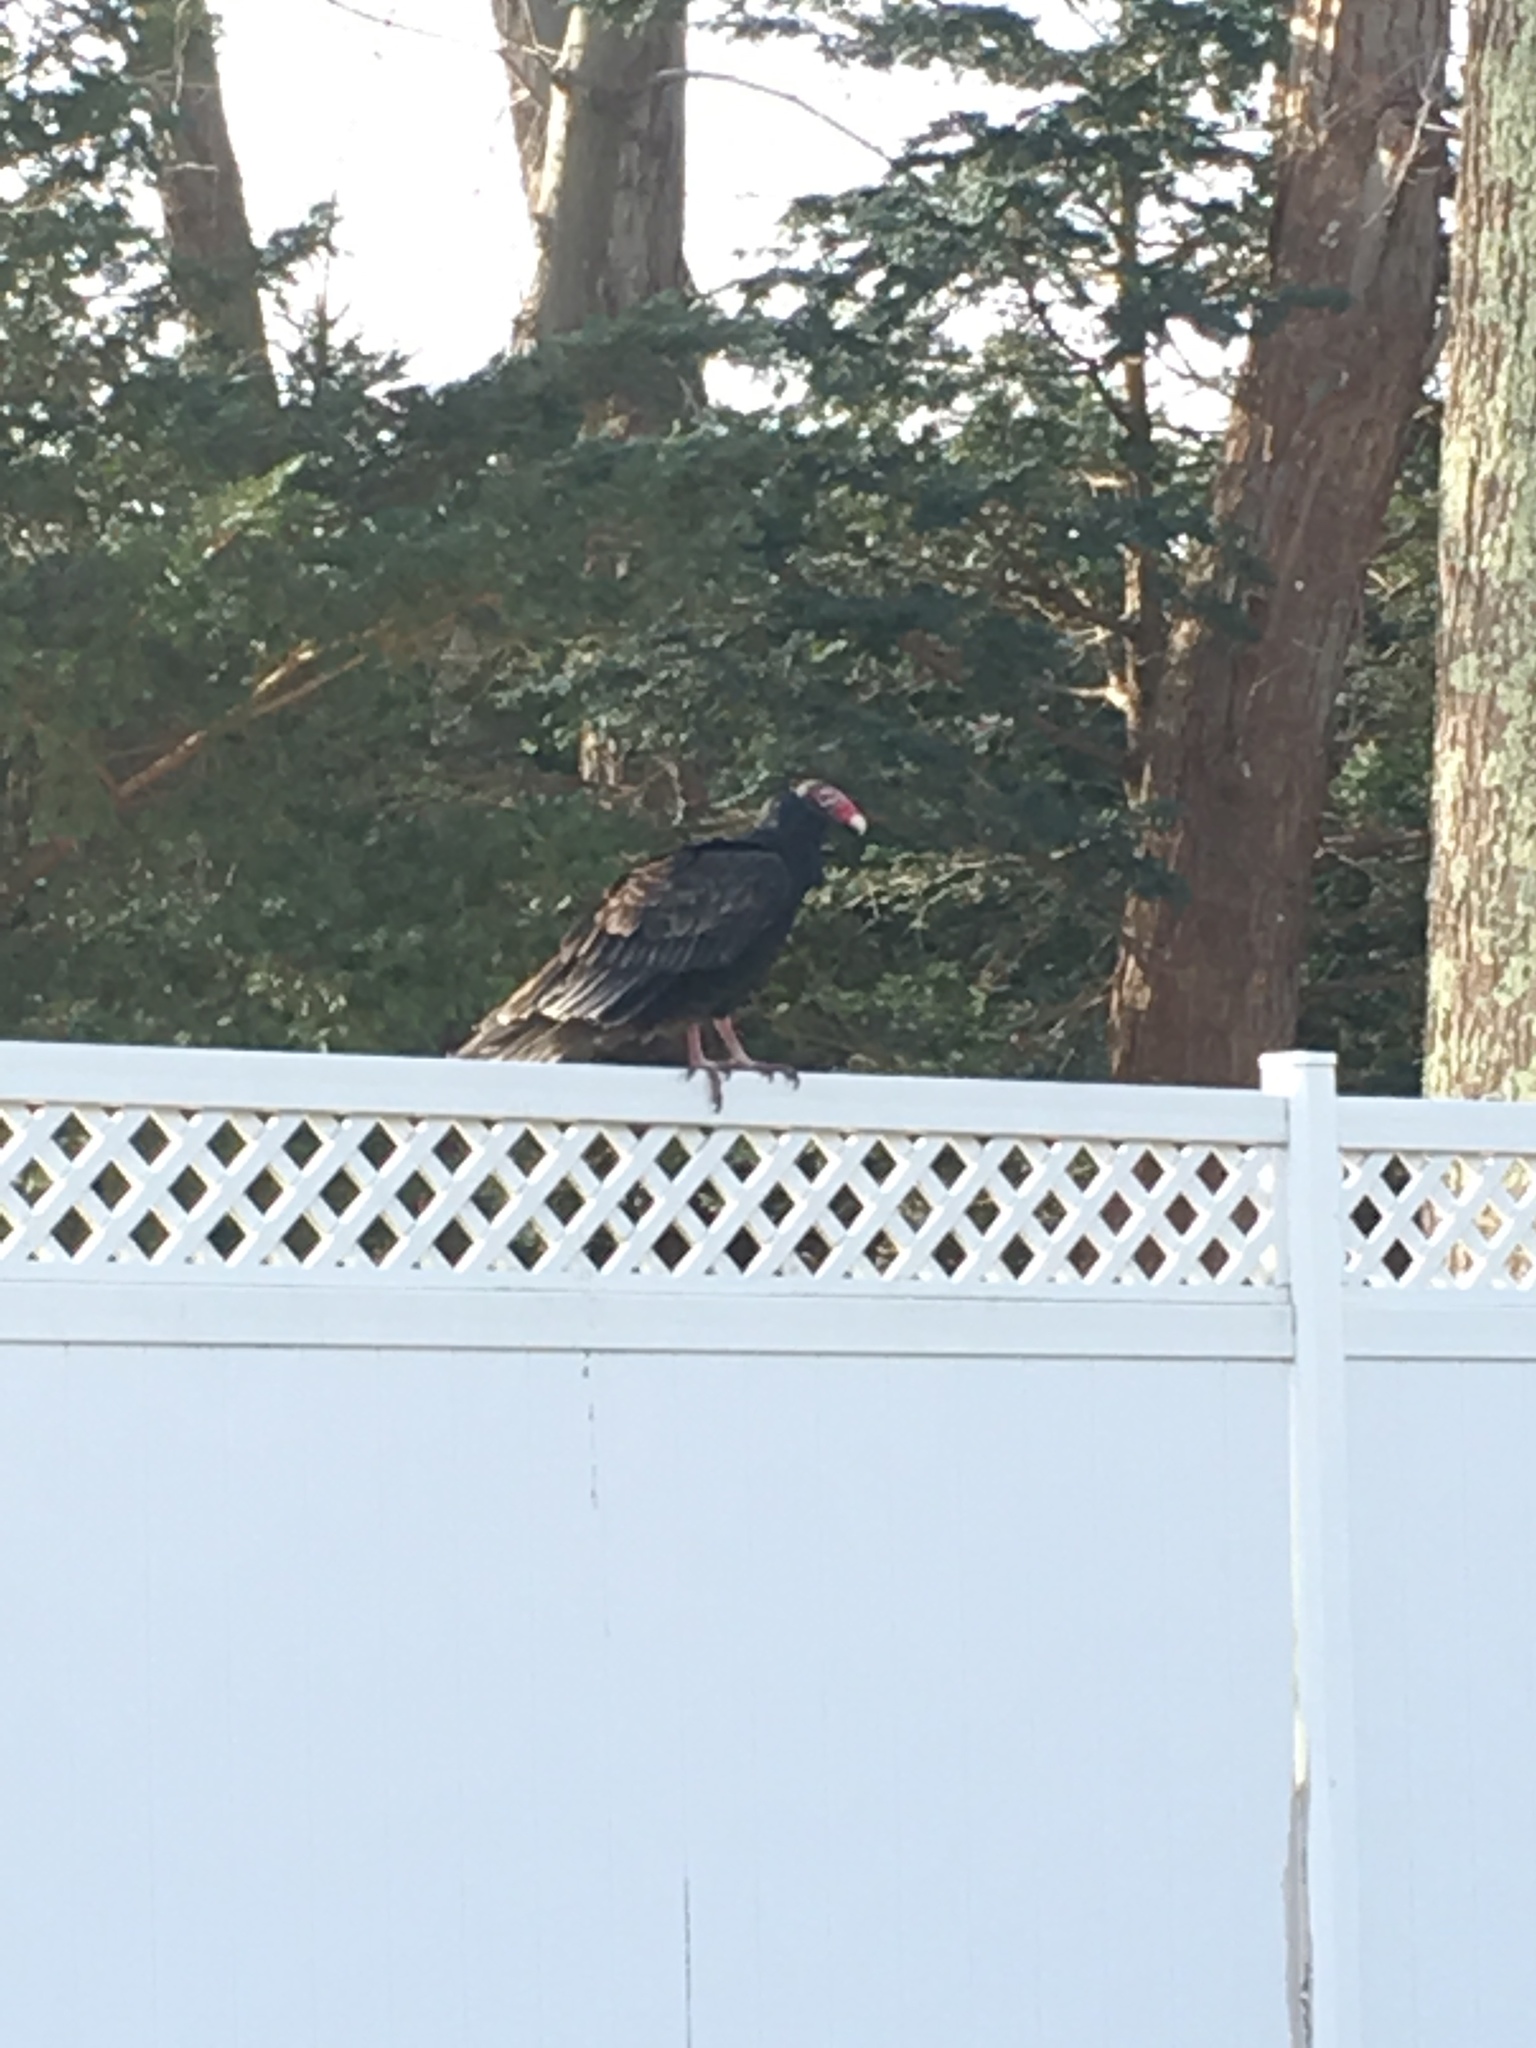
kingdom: Animalia
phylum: Chordata
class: Aves
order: Accipitriformes
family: Cathartidae
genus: Cathartes
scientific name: Cathartes aura
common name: Turkey vulture
